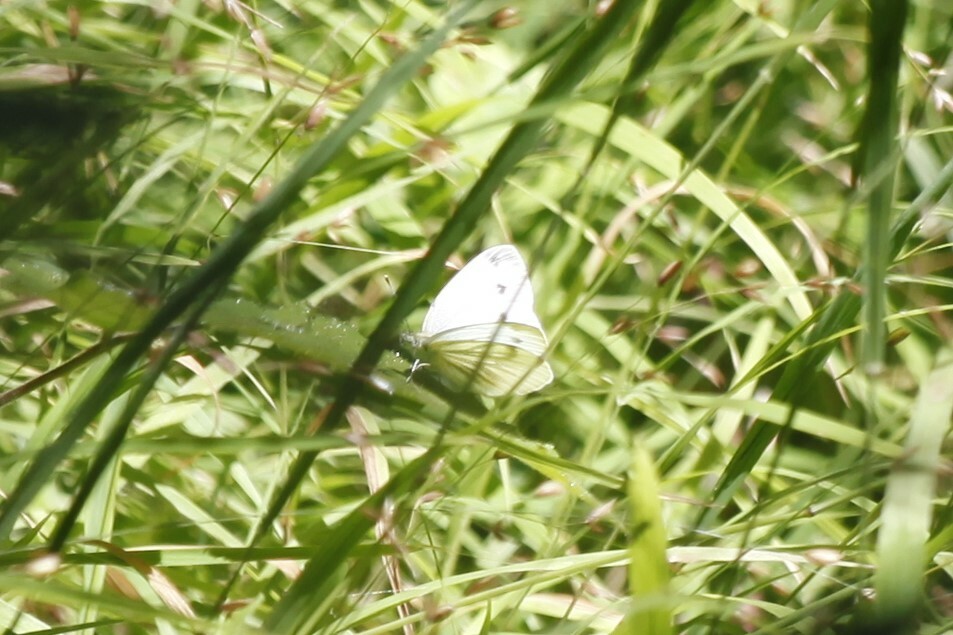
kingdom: Animalia
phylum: Arthropoda
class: Insecta
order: Lepidoptera
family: Pieridae
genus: Pieris
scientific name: Pieris napi
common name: Green-veined white
